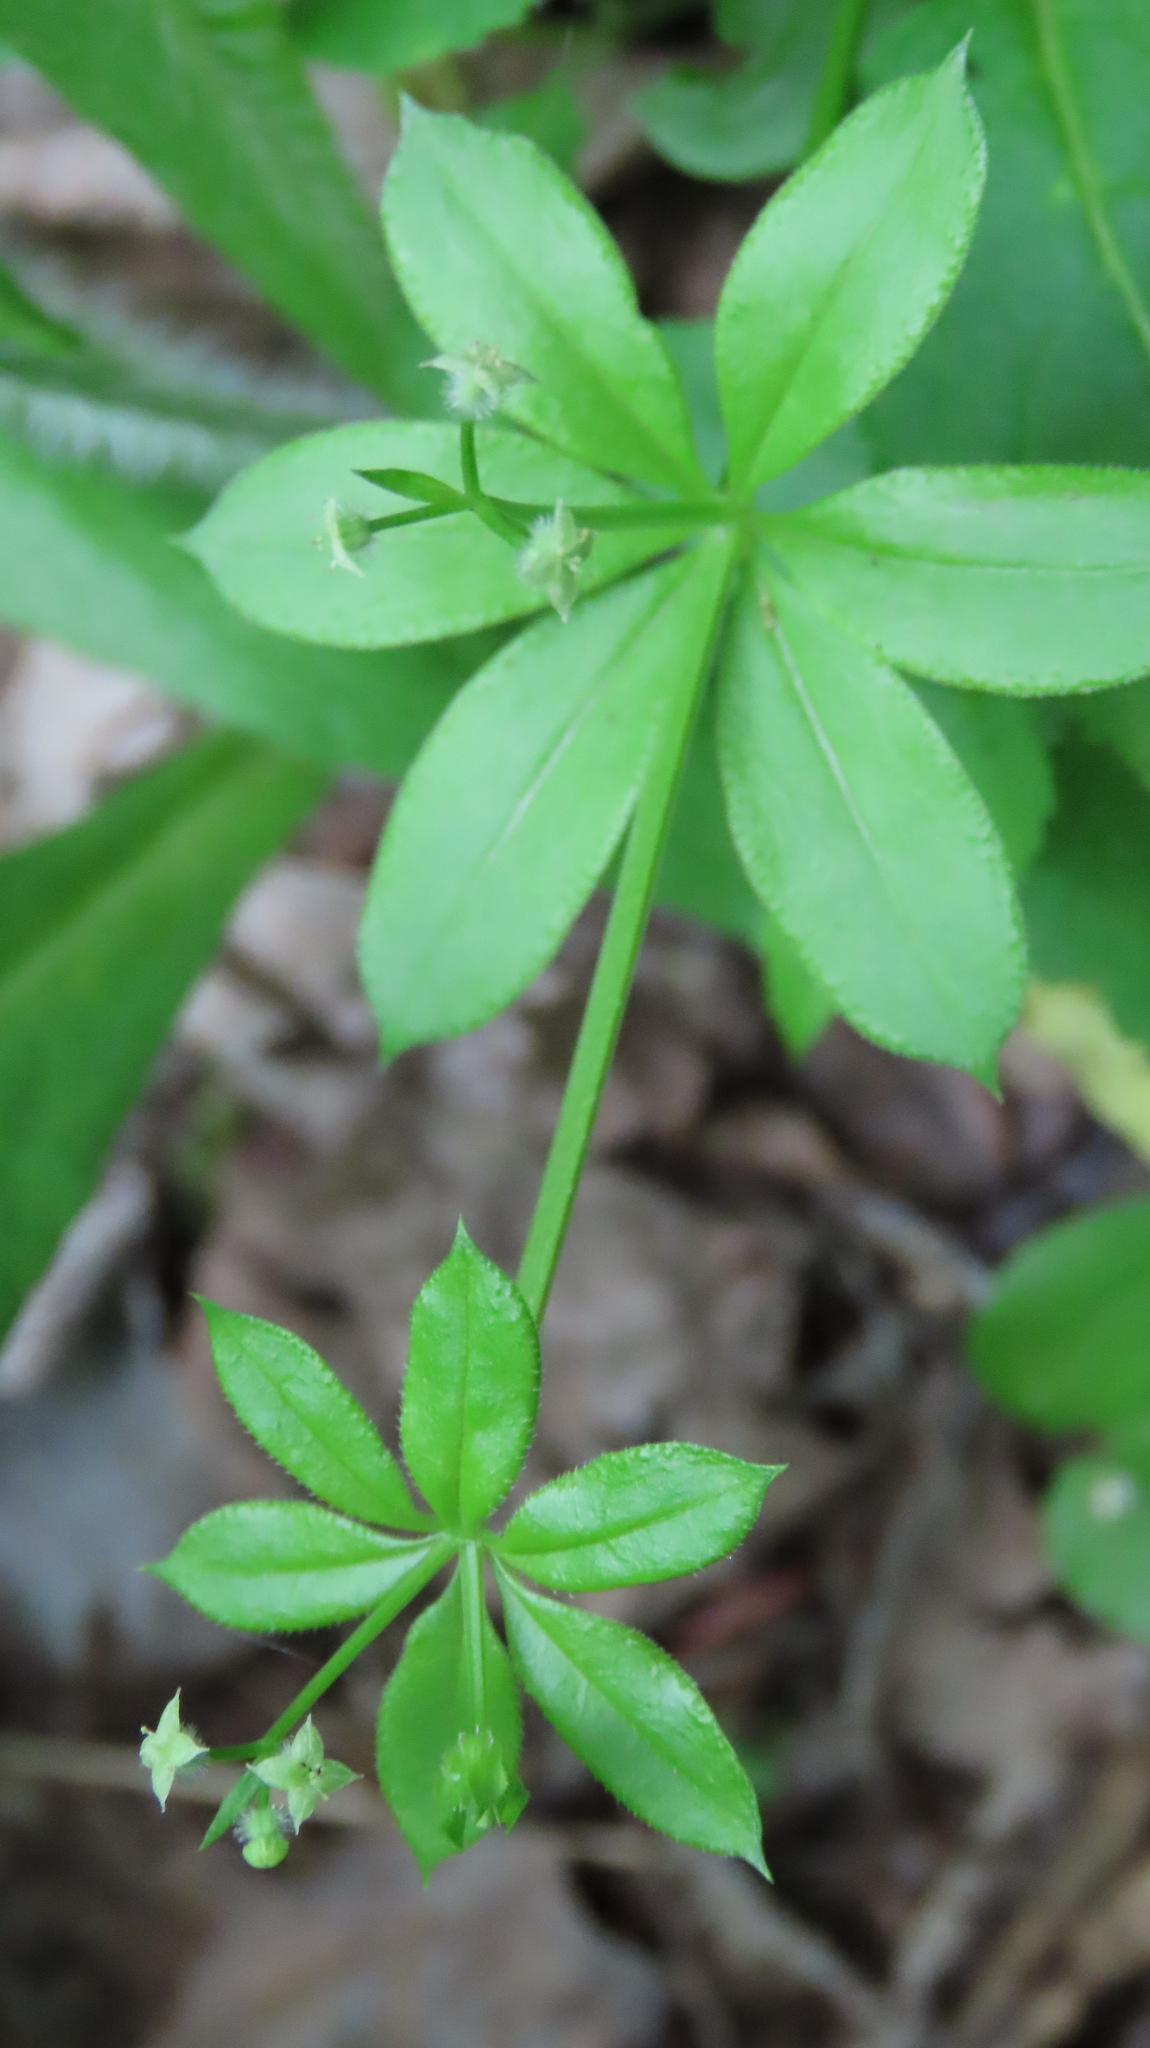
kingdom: Plantae
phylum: Tracheophyta
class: Magnoliopsida
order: Gentianales
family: Rubiaceae
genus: Galium
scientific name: Galium triflorum
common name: Fragrant bedstraw
